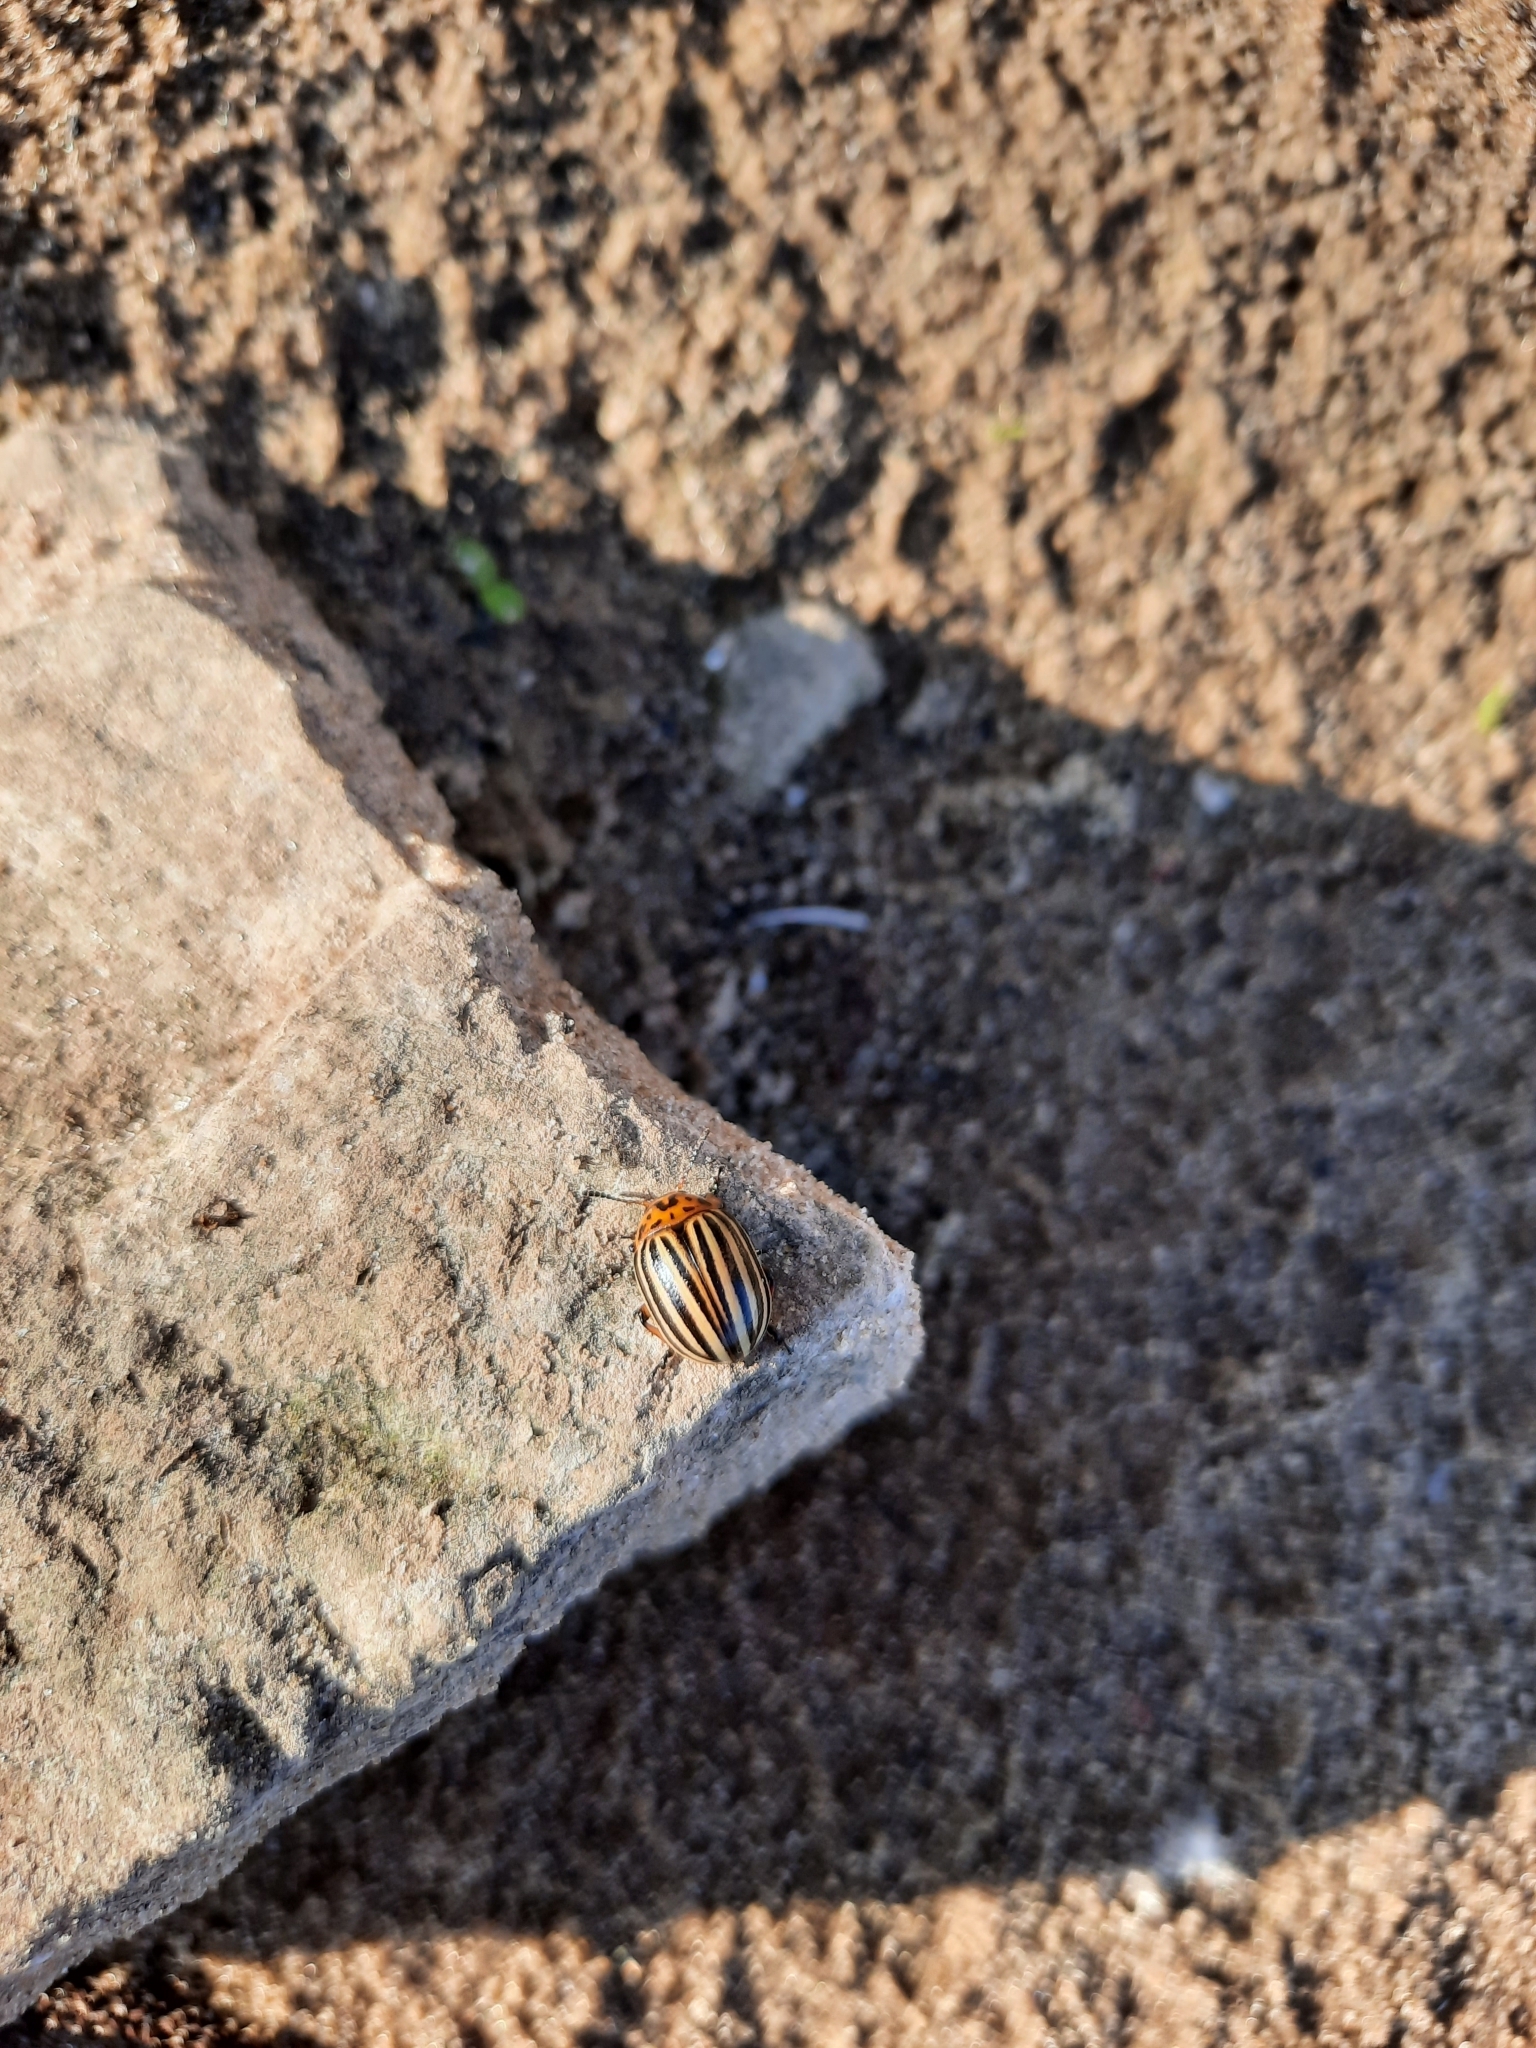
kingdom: Animalia
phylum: Arthropoda
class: Insecta
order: Coleoptera
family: Chrysomelidae
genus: Leptinotarsa
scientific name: Leptinotarsa decemlineata
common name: Colorado potato beetle
